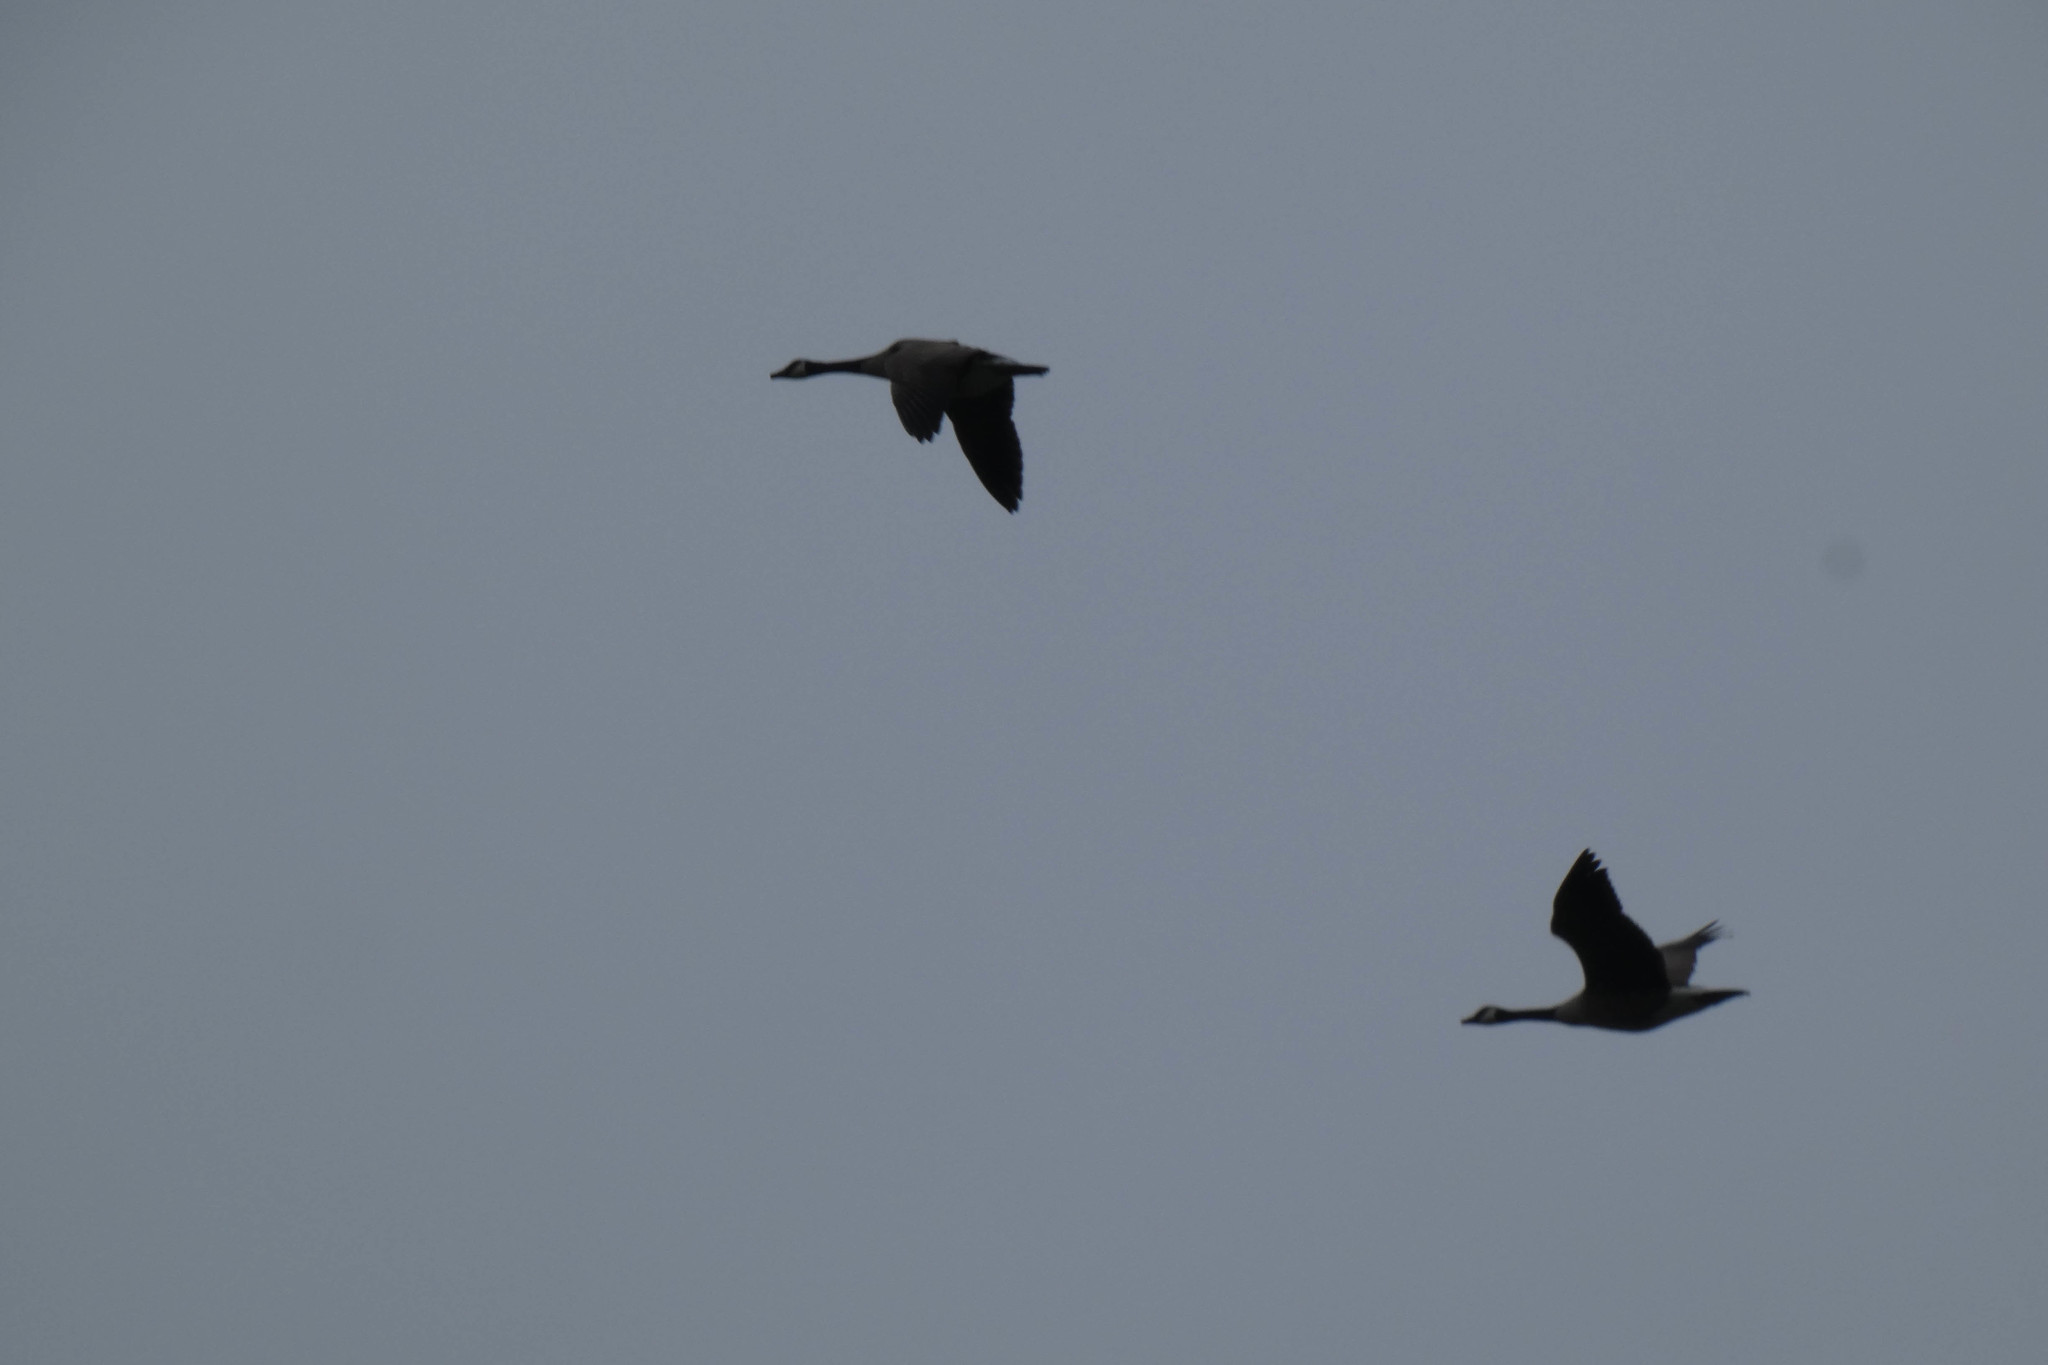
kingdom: Animalia
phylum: Chordata
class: Aves
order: Anseriformes
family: Anatidae
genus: Branta
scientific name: Branta canadensis
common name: Canada goose
